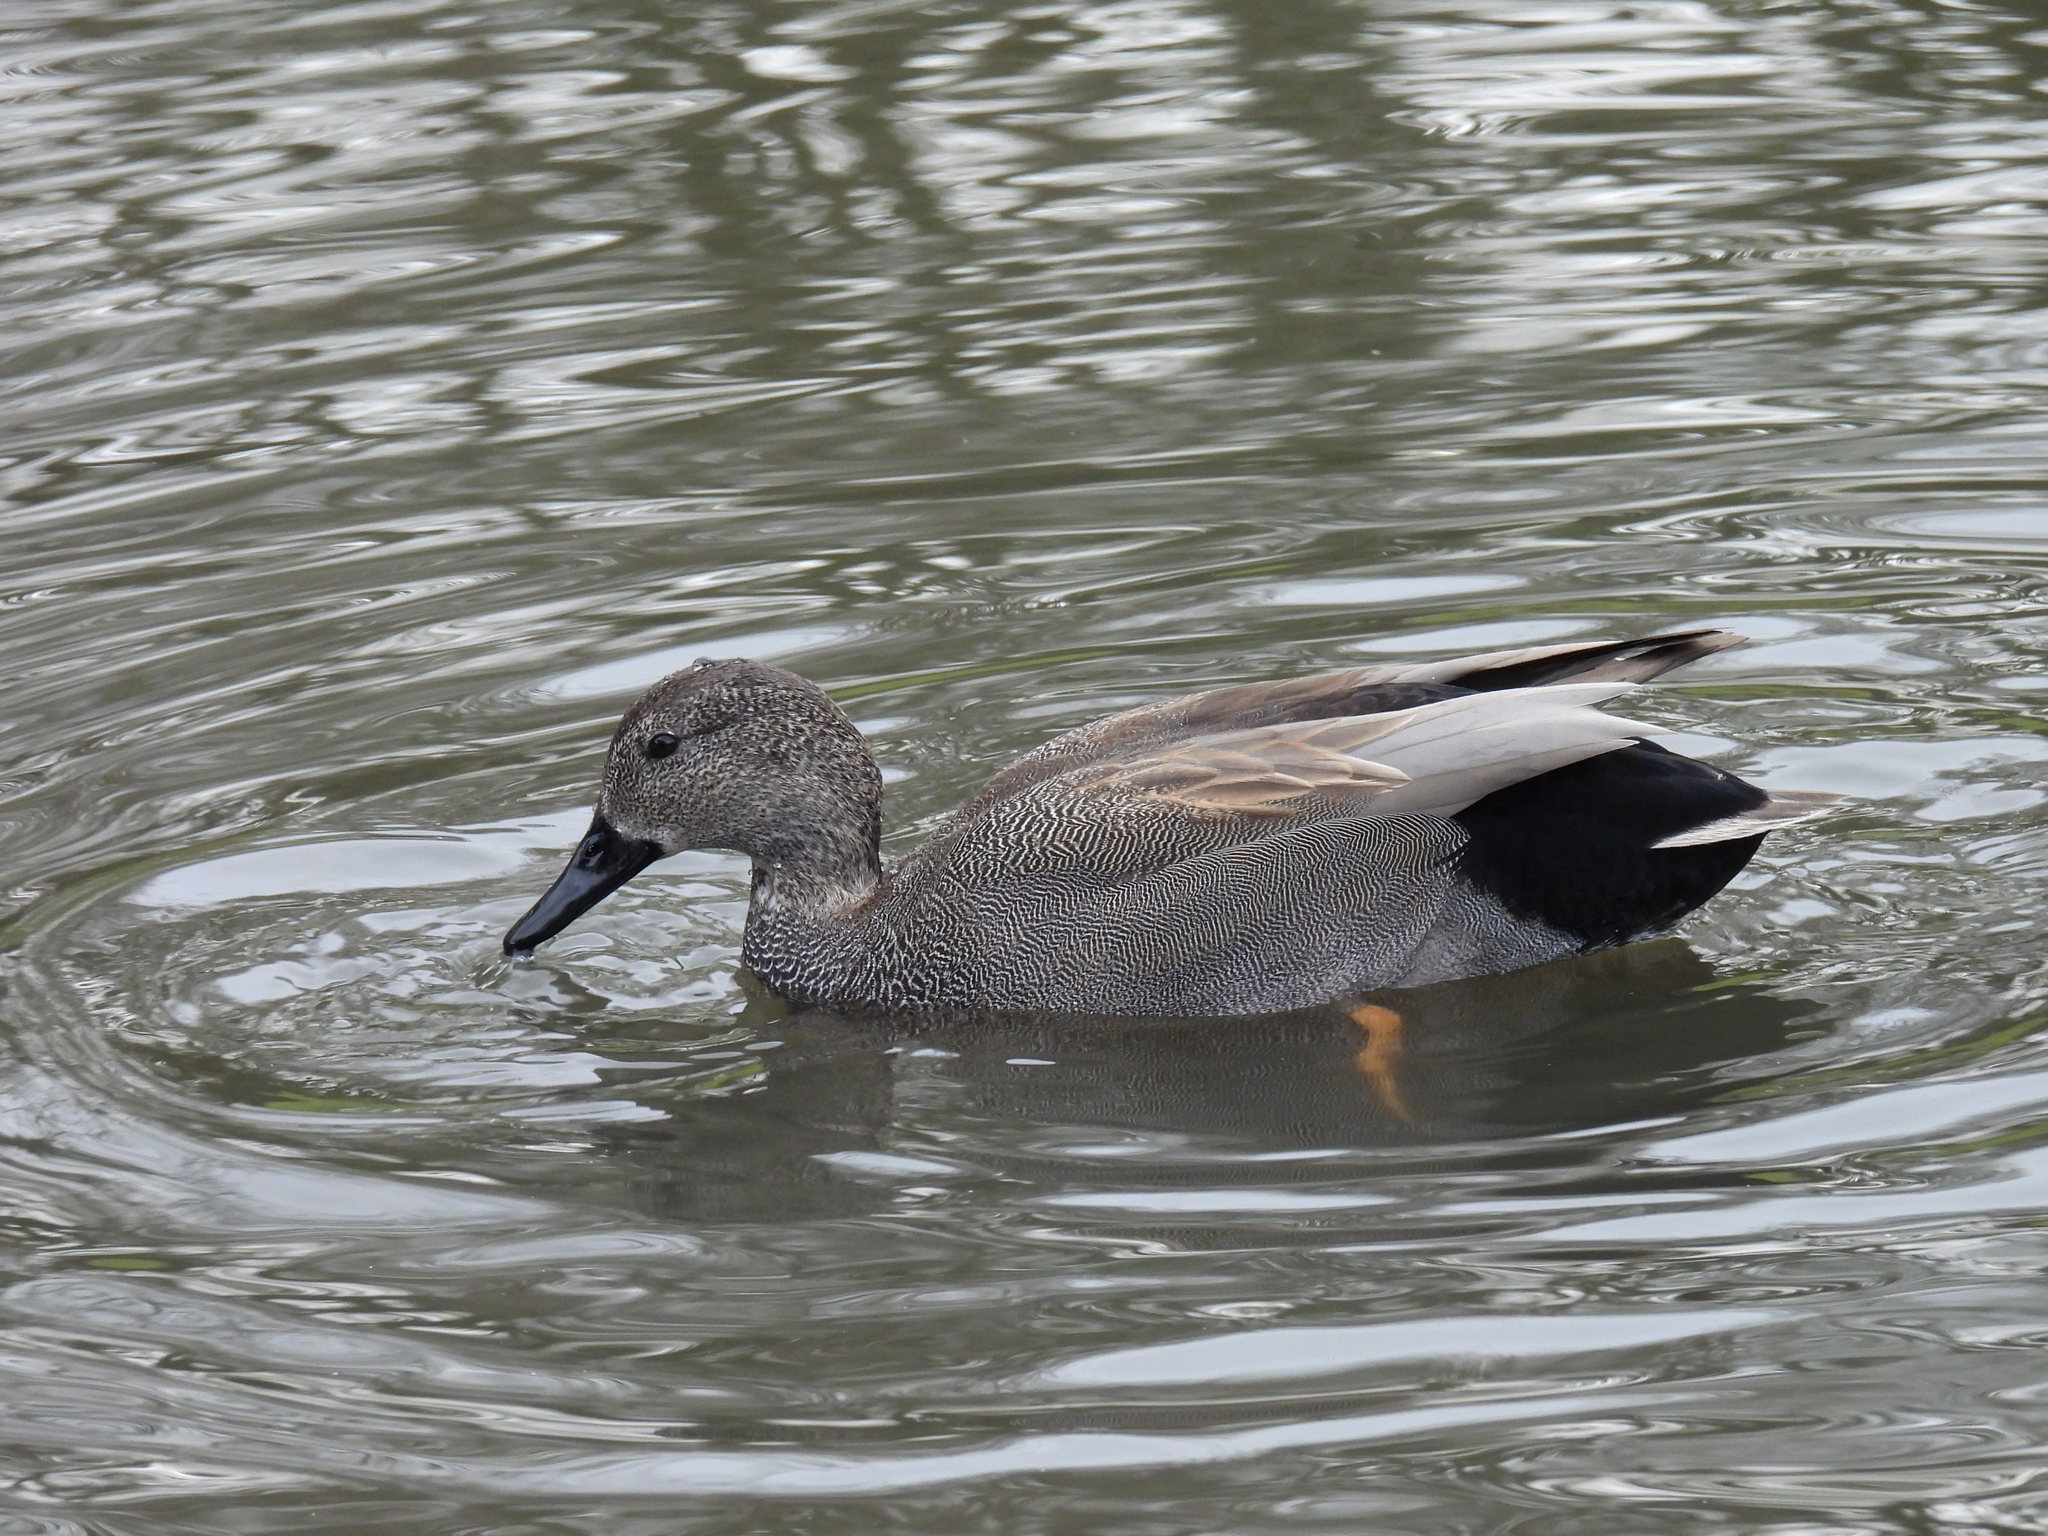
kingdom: Animalia
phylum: Chordata
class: Aves
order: Anseriformes
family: Anatidae
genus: Mareca
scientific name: Mareca strepera
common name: Gadwall
